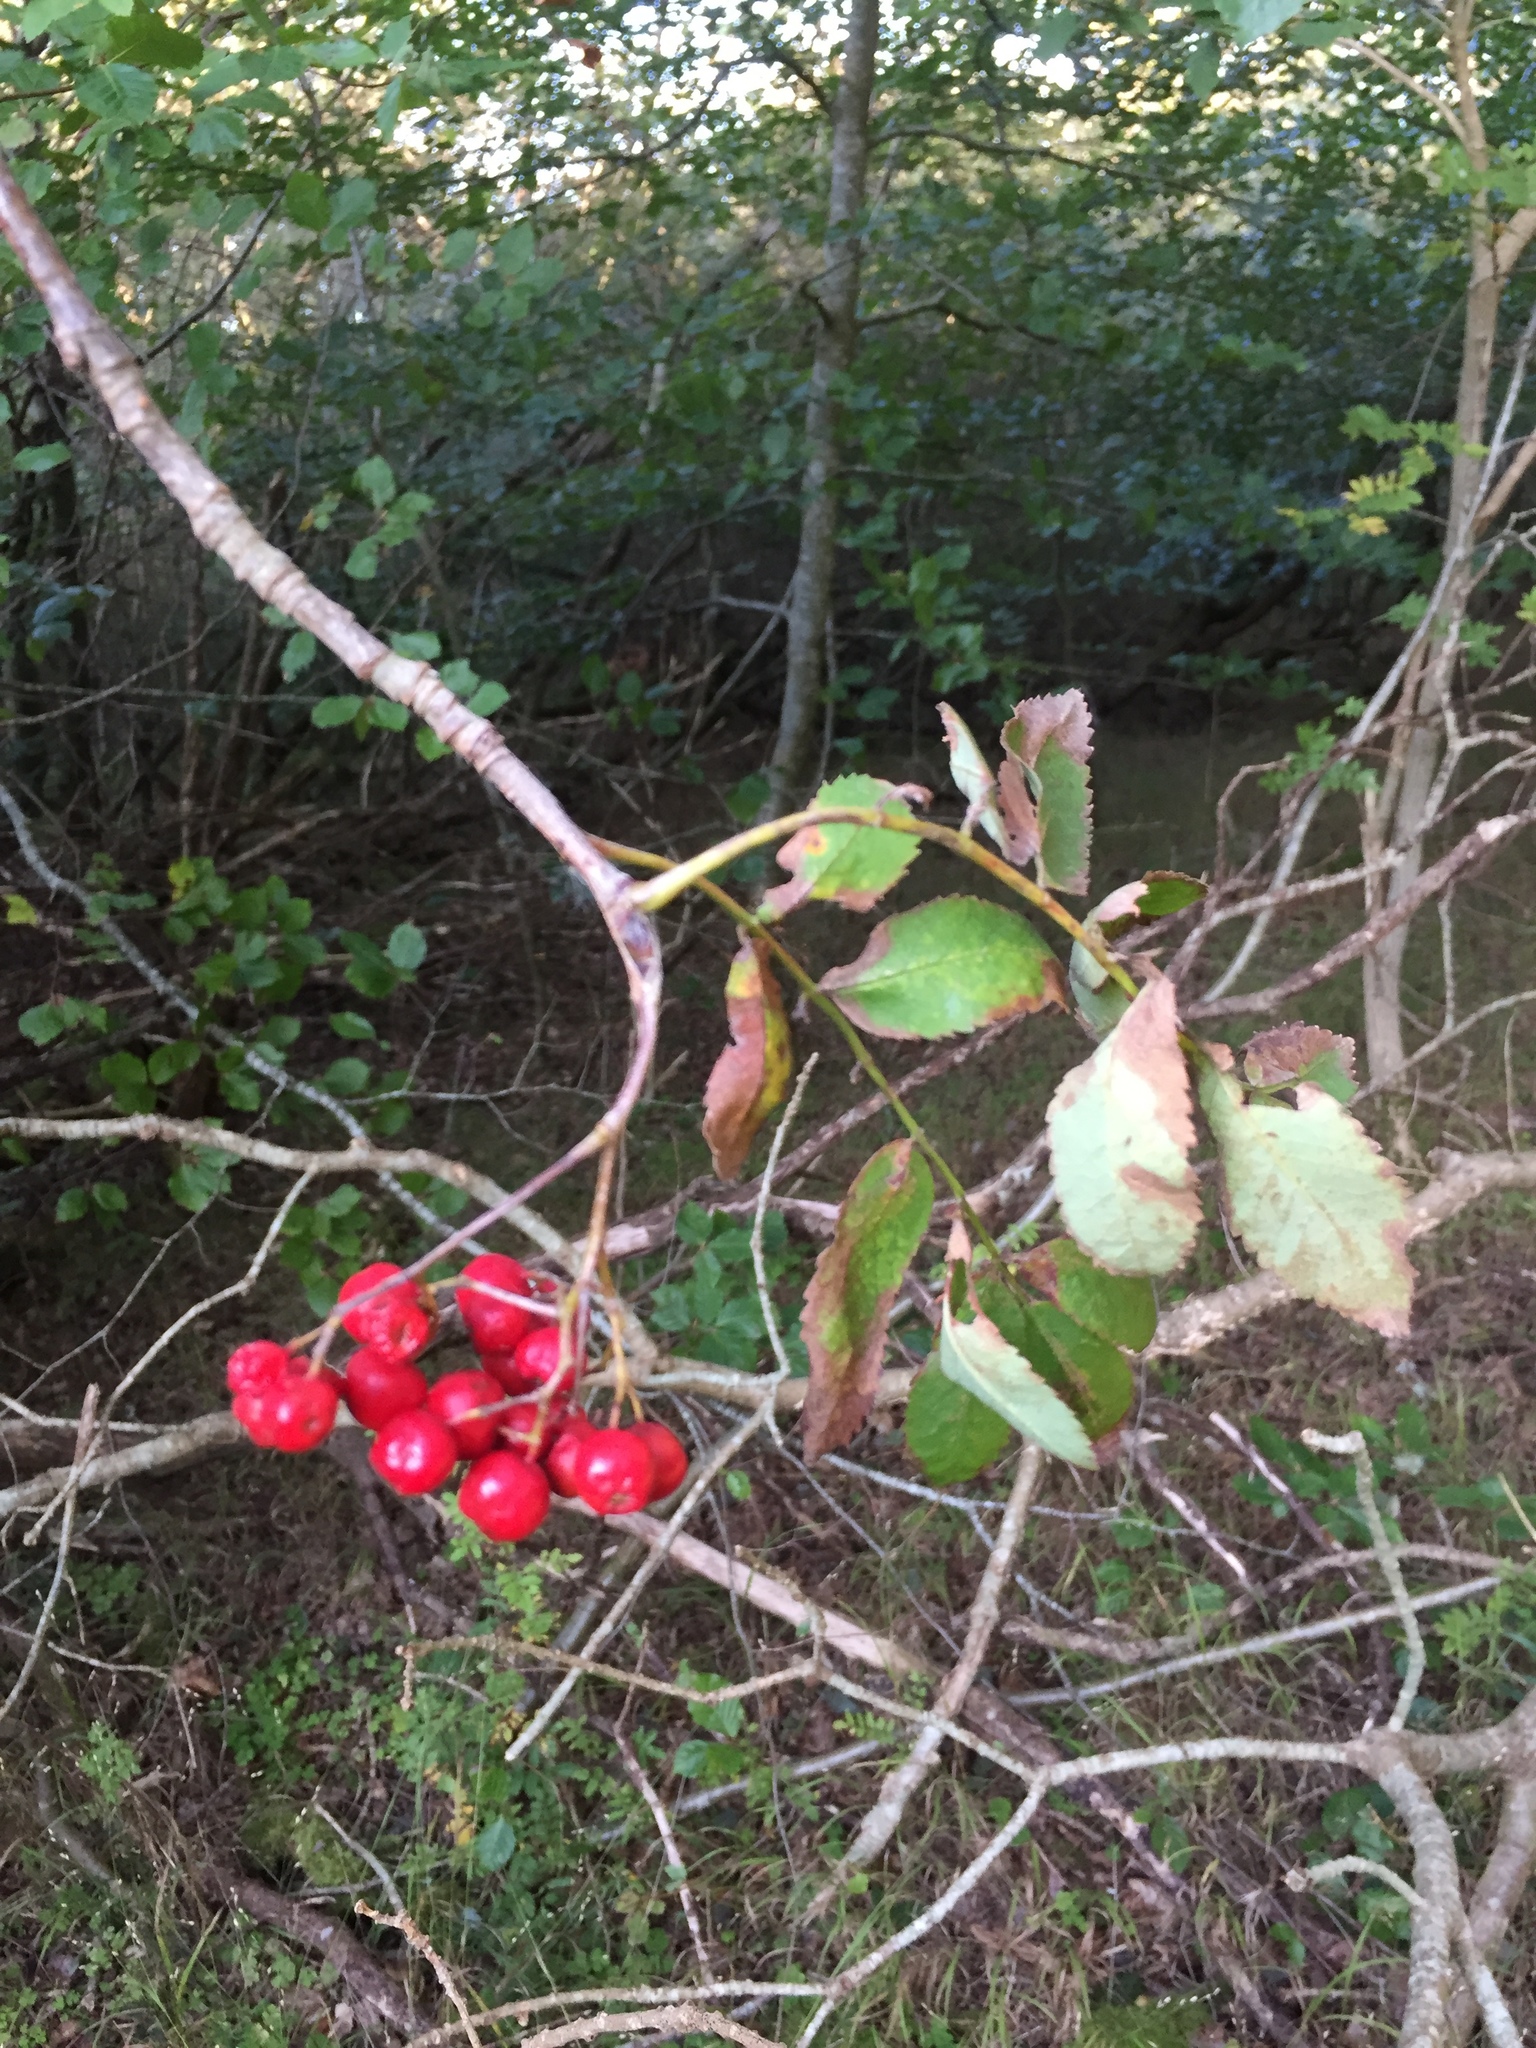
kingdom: Plantae
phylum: Tracheophyta
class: Magnoliopsida
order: Rosales
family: Rosaceae
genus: Sorbus
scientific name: Sorbus aucuparia
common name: Rowan
